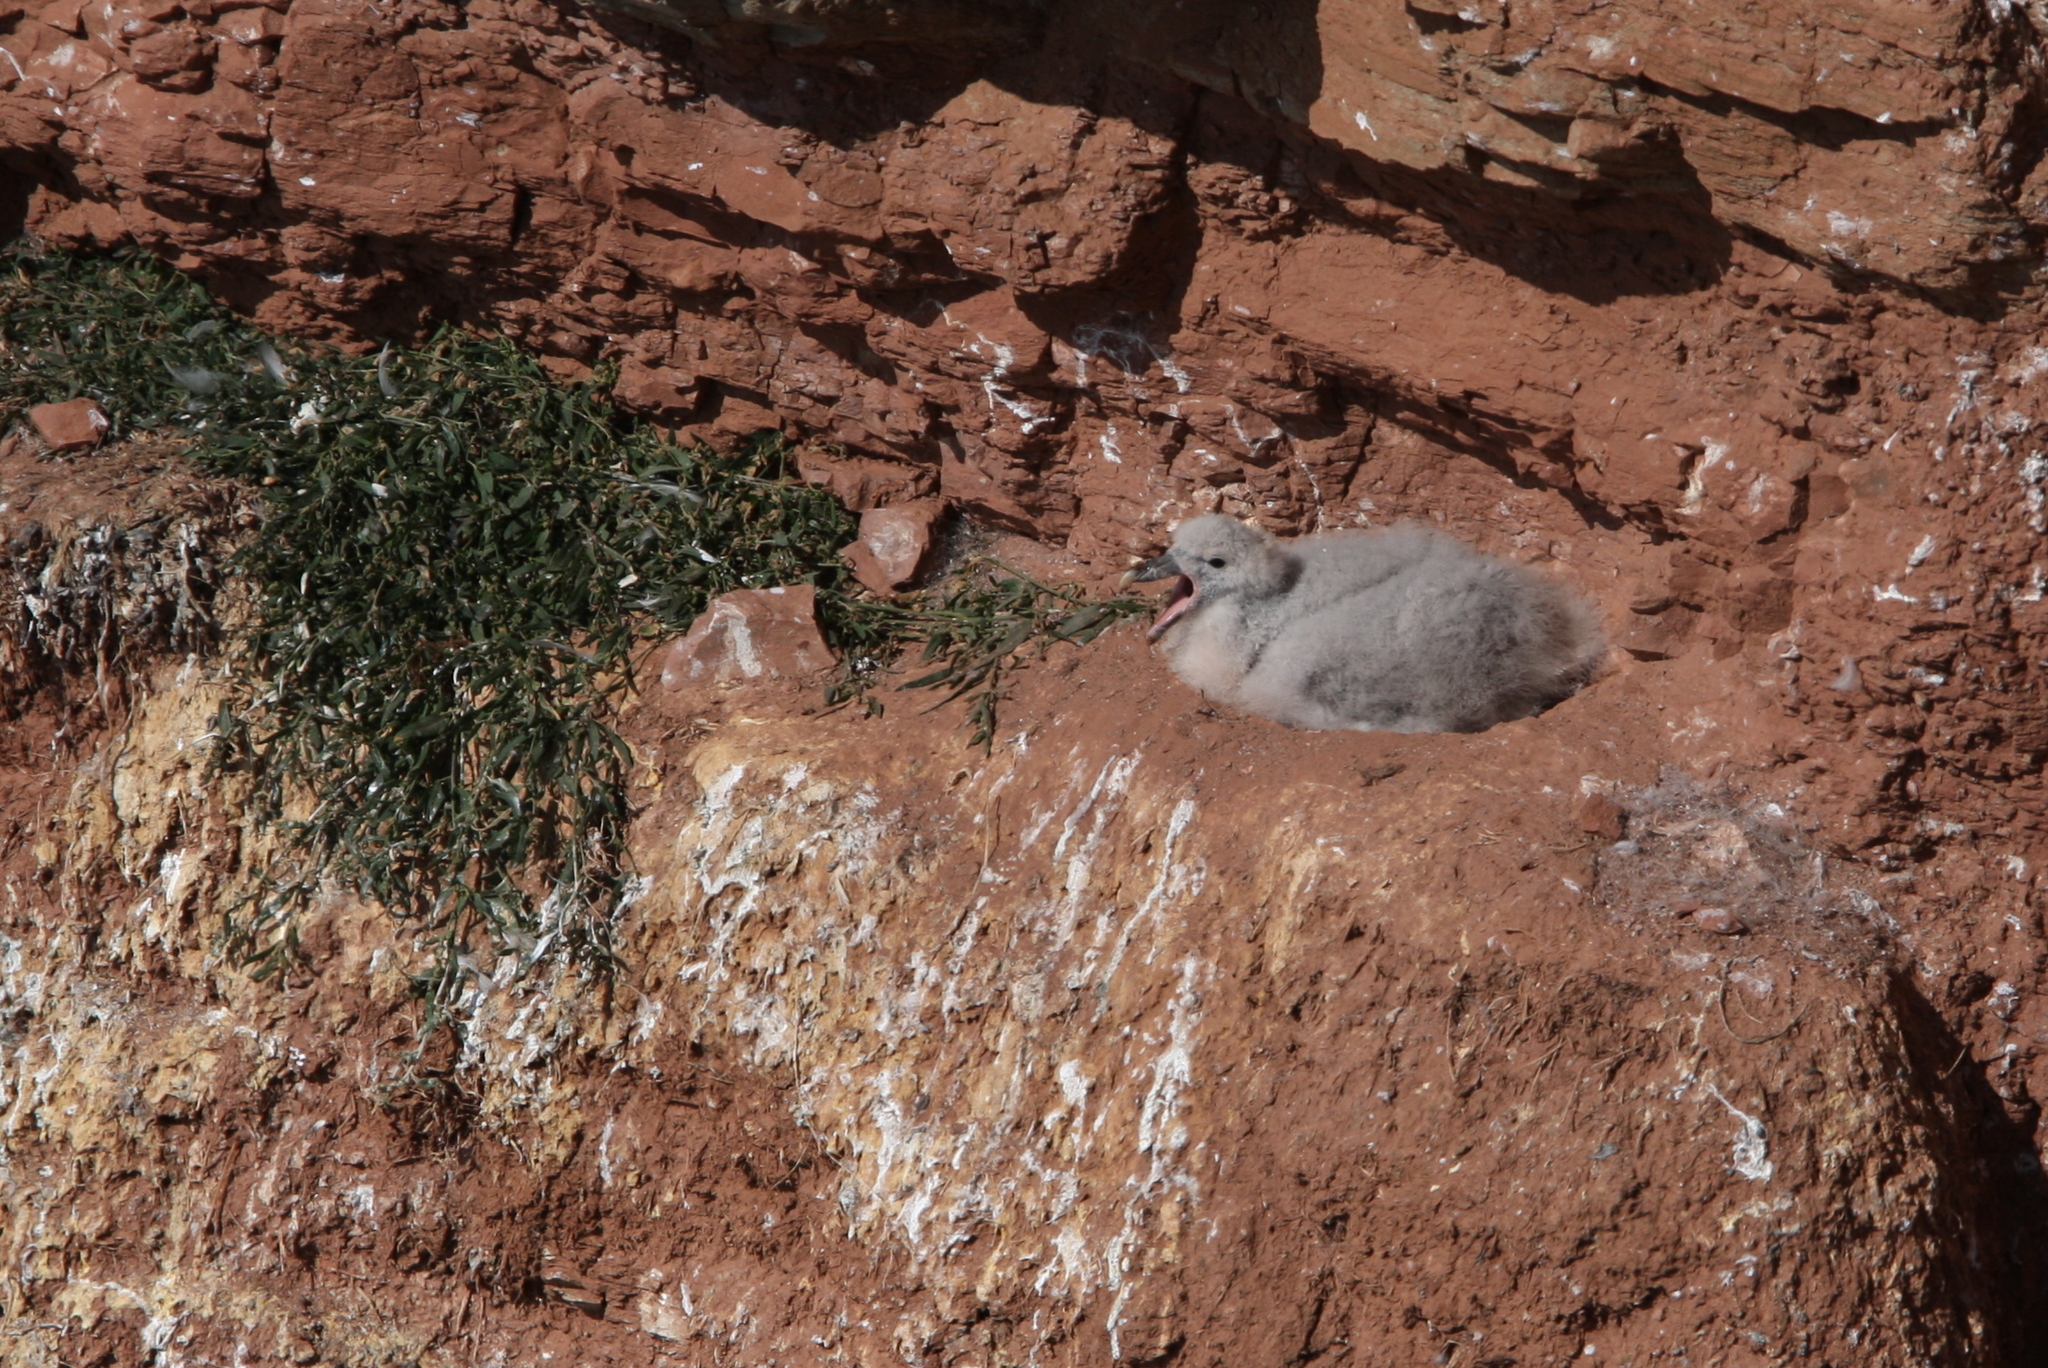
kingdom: Animalia
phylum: Chordata
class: Aves
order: Procellariiformes
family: Procellariidae
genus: Fulmarus
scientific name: Fulmarus glacialis
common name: Northern fulmar
